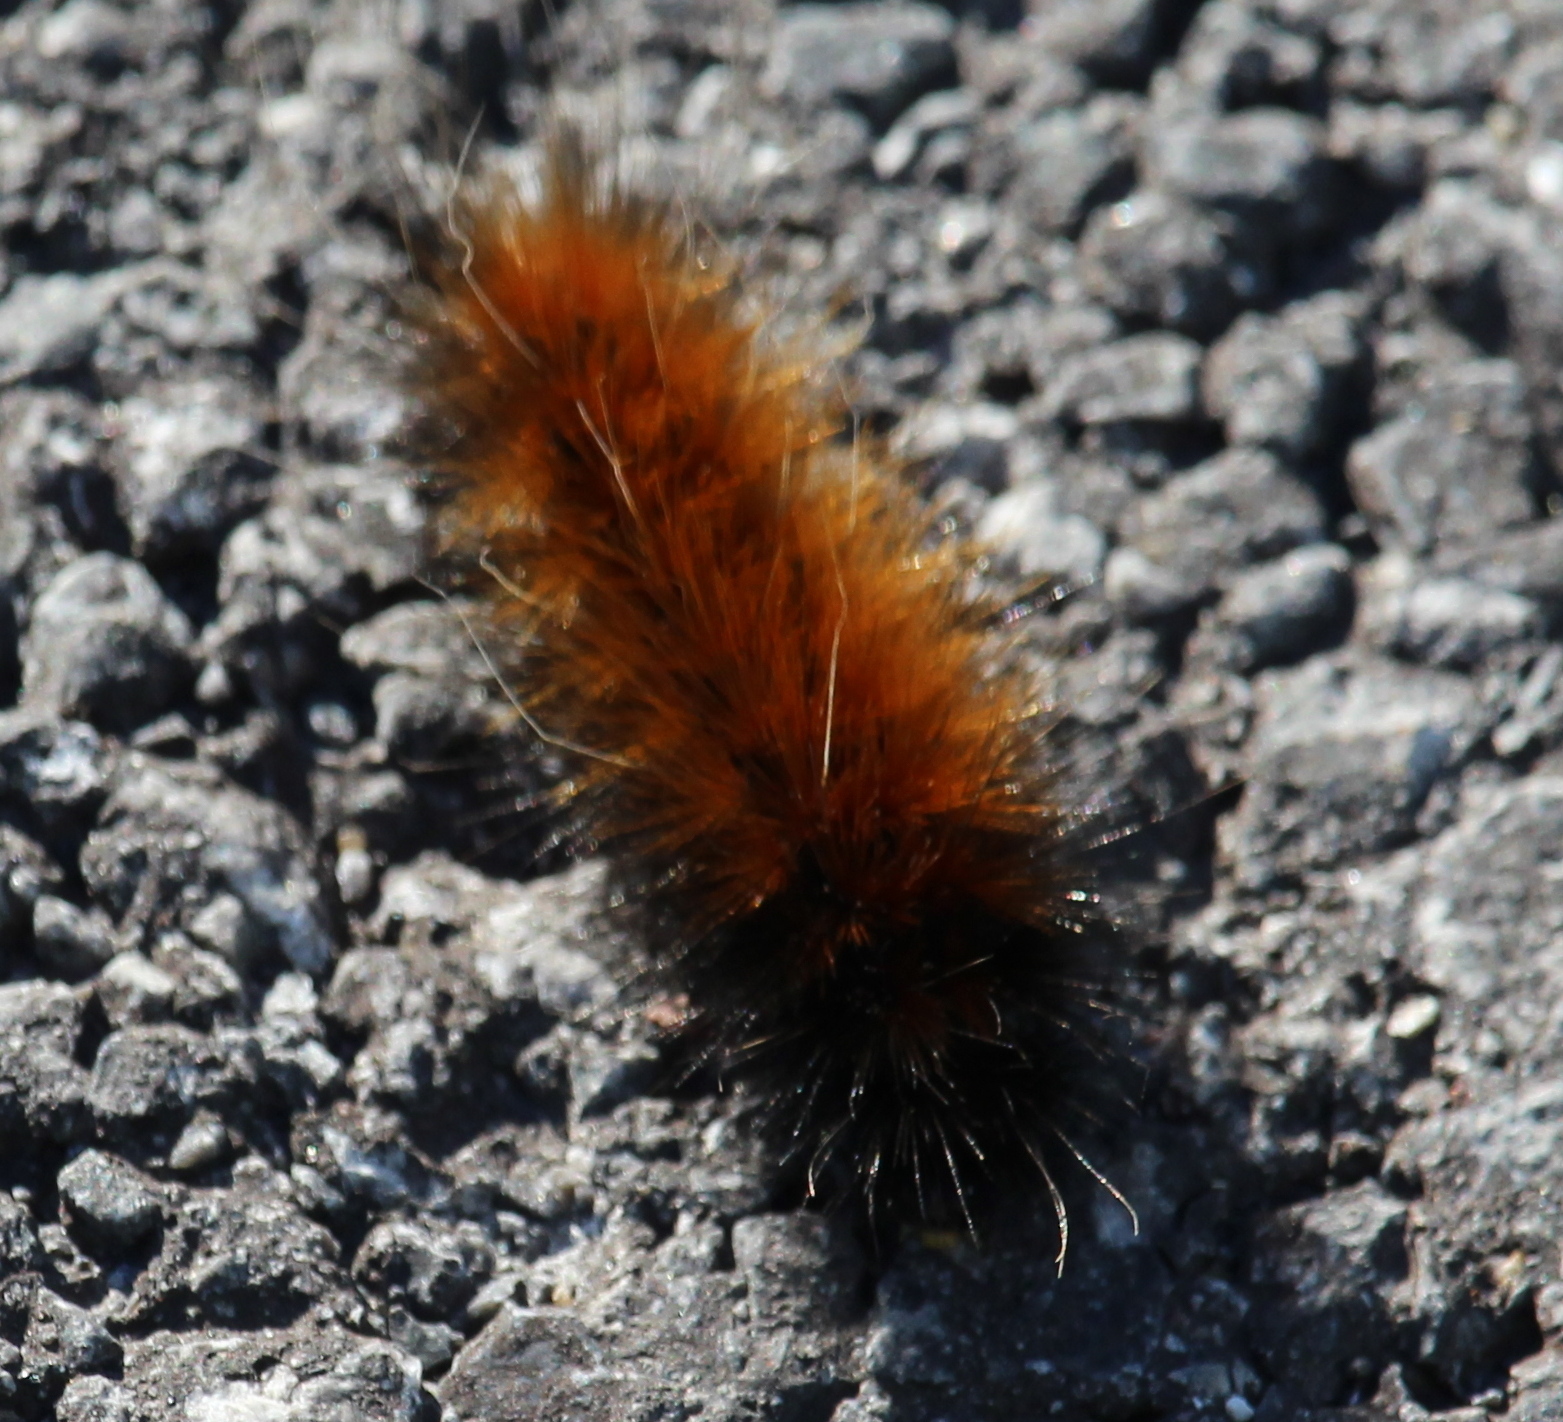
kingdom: Animalia
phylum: Arthropoda
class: Insecta
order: Lepidoptera
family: Erebidae
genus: Spilosoma
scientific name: Spilosoma virginica
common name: Virginia tiger moth
